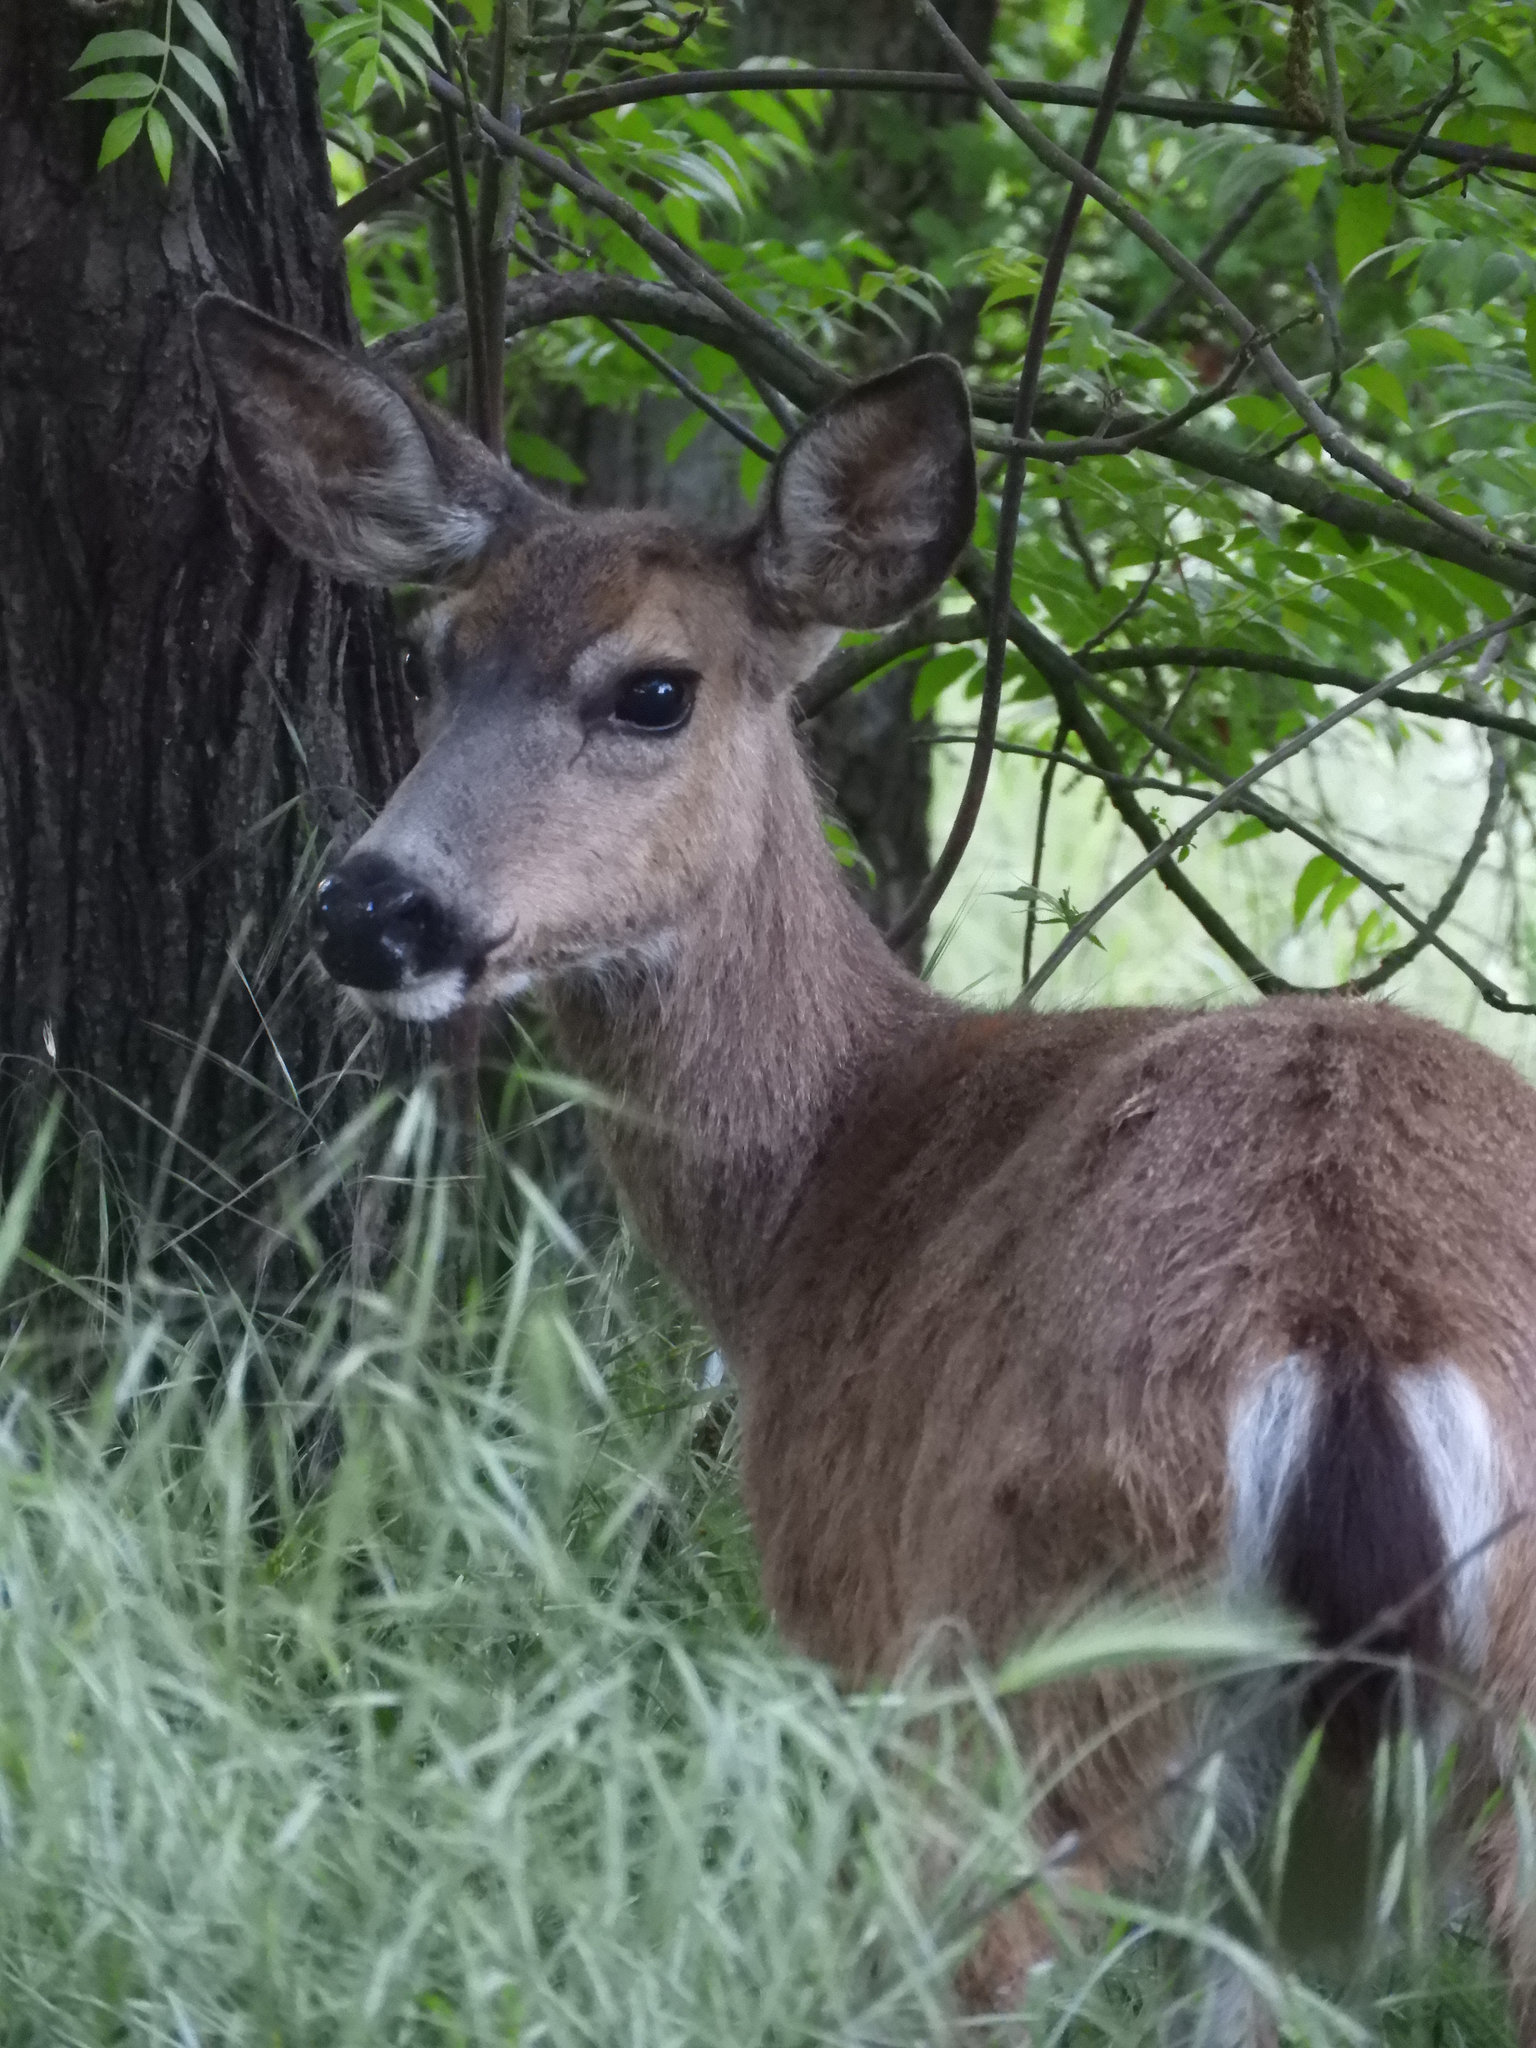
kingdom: Animalia
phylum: Chordata
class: Mammalia
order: Artiodactyla
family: Cervidae
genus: Odocoileus
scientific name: Odocoileus hemionus
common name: Mule deer
